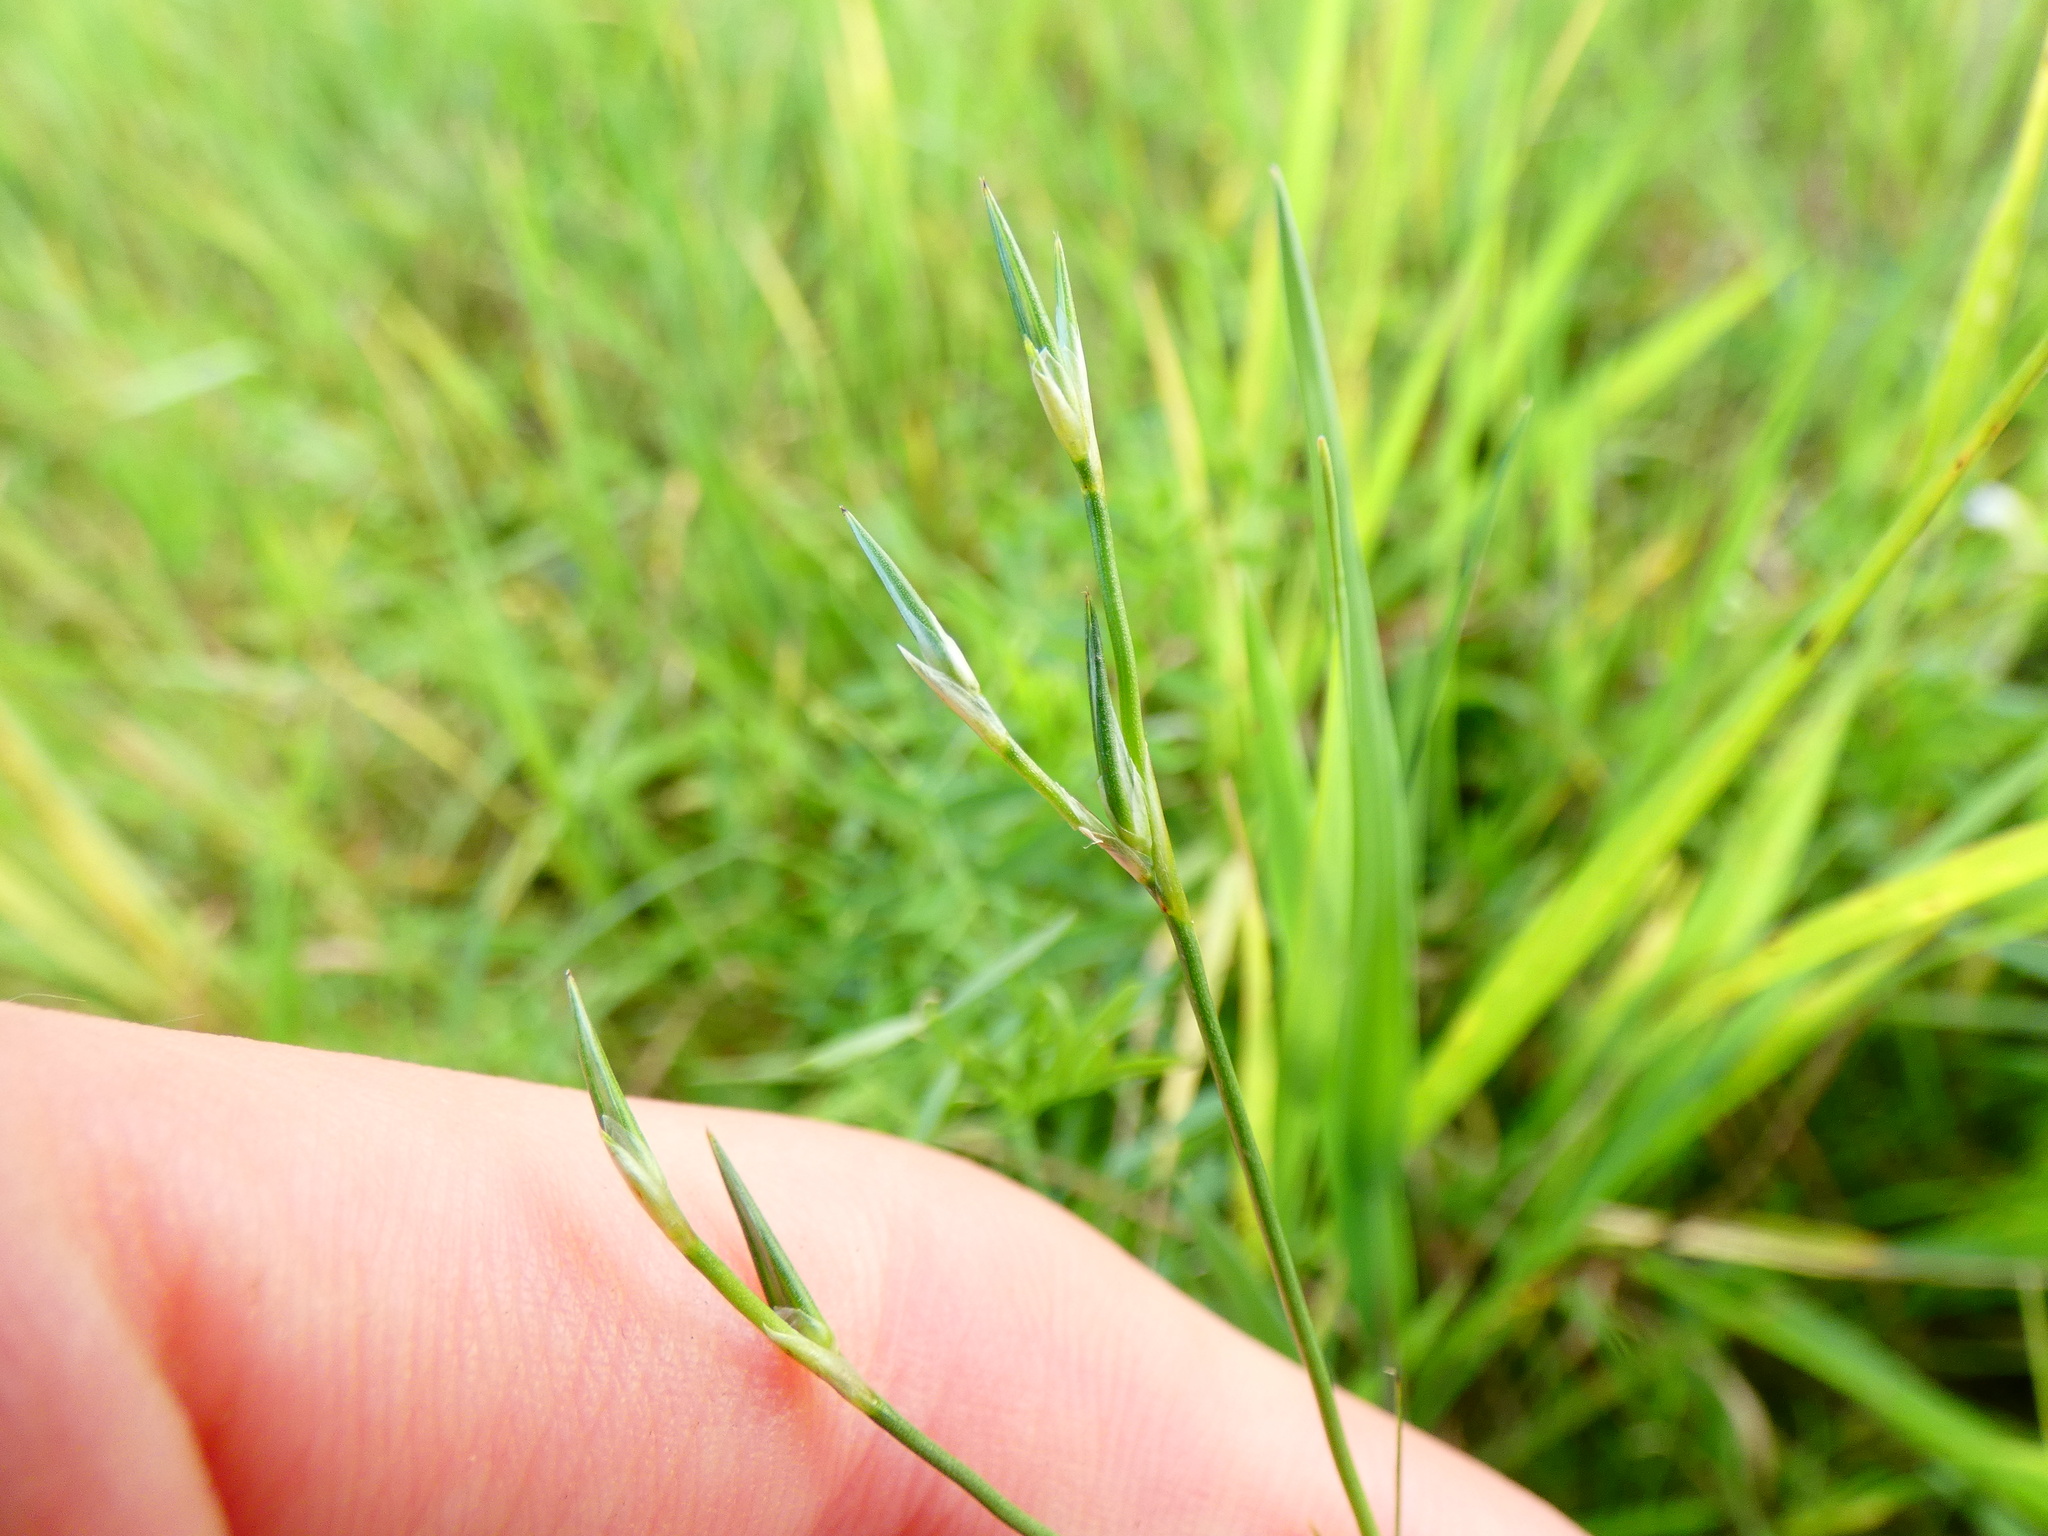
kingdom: Plantae
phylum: Tracheophyta
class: Liliopsida
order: Poales
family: Juncaceae
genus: Juncus
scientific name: Juncus bufonius
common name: Toad rush
